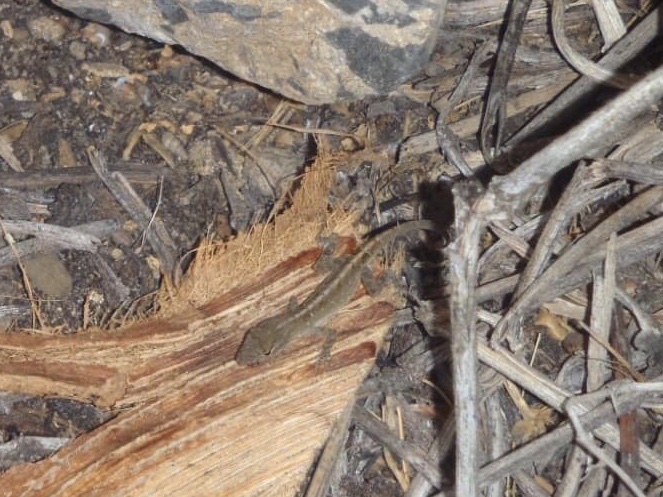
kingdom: Animalia
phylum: Chordata
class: Squamata
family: Dactyloidae
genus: Anolis
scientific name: Anolis sagrei
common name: Brown anole
